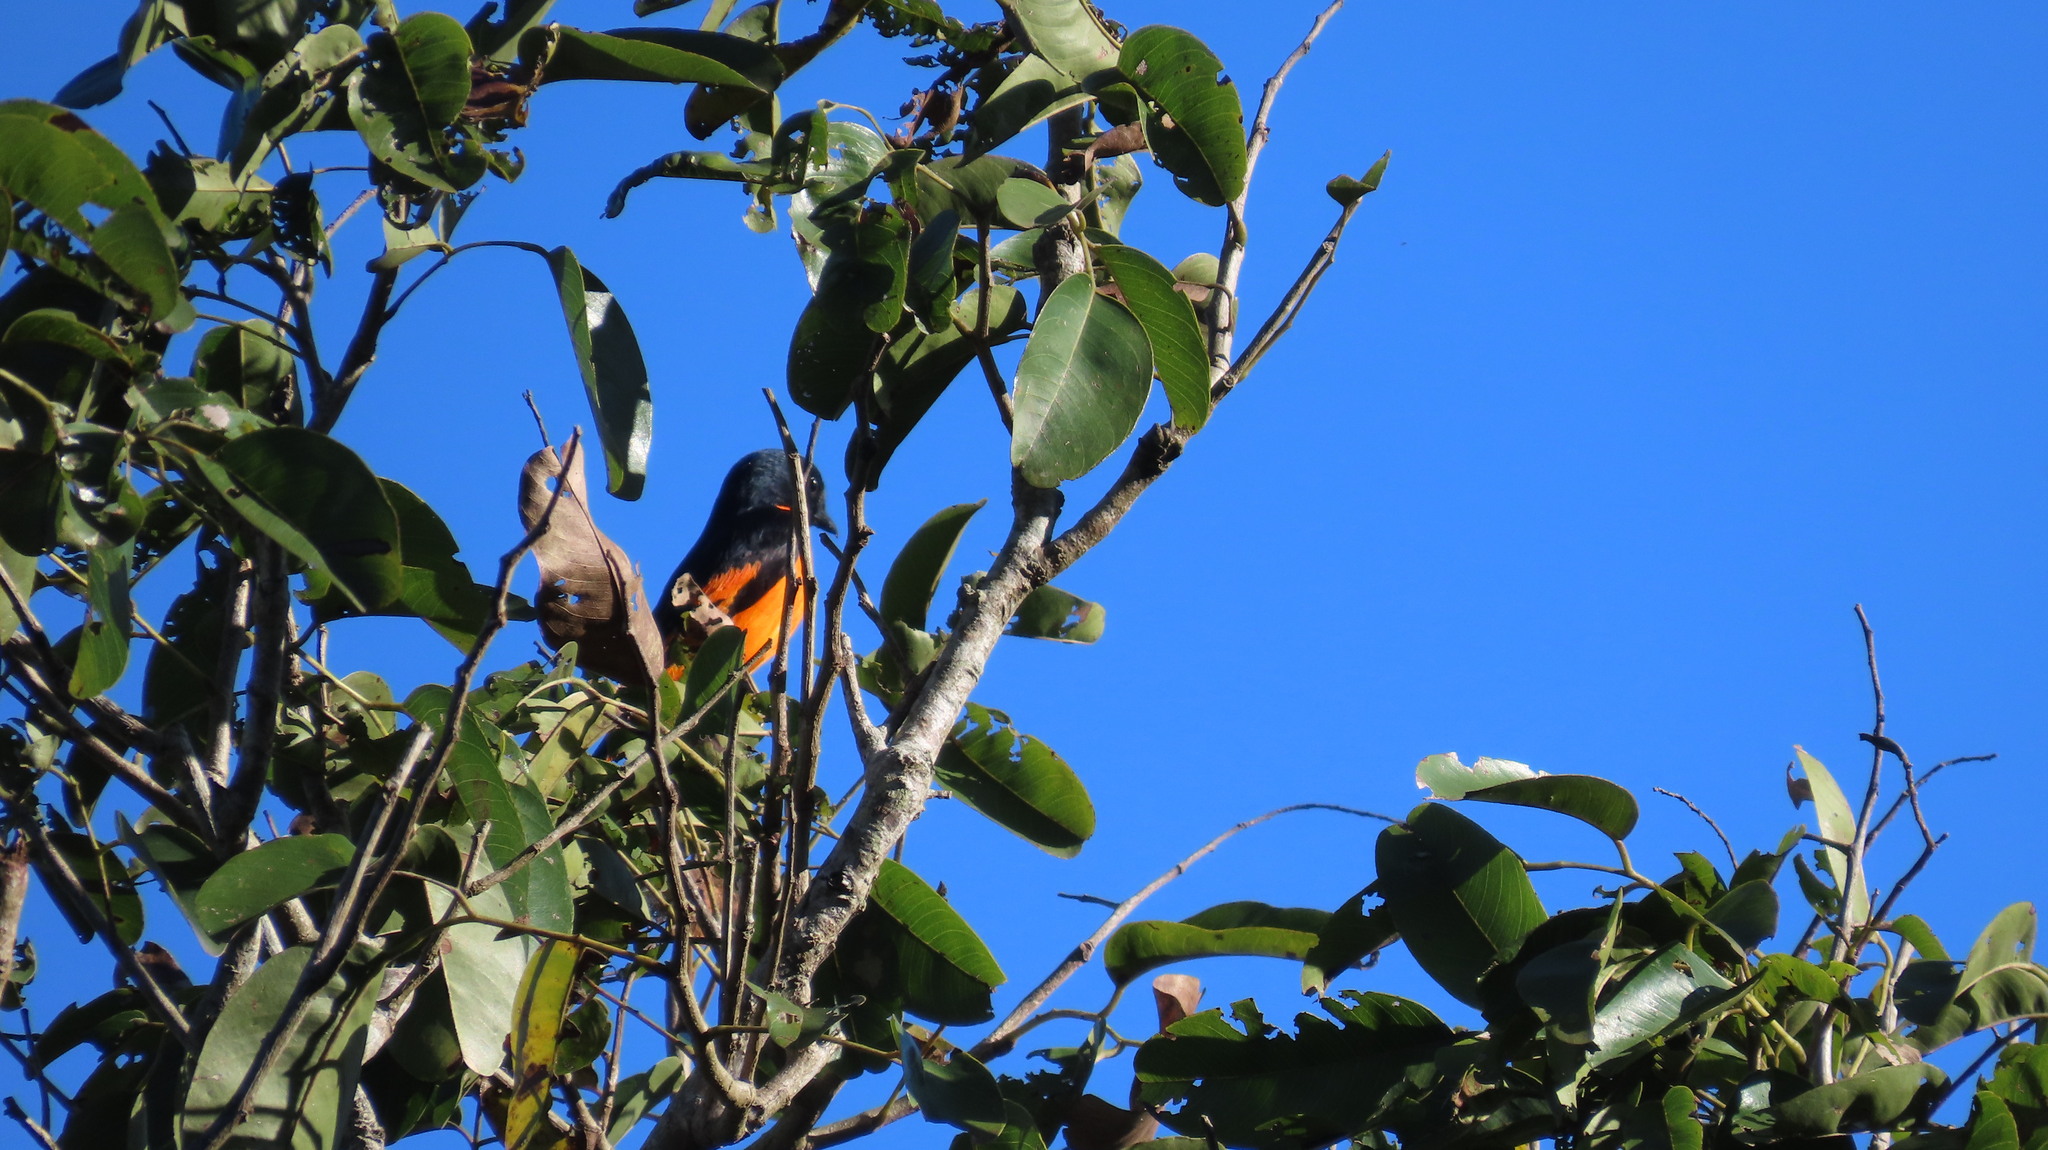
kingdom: Animalia
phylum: Chordata
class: Aves
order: Passeriformes
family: Campephagidae
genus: Pericrocotus
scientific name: Pericrocotus flammeus
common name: Orange minivet
